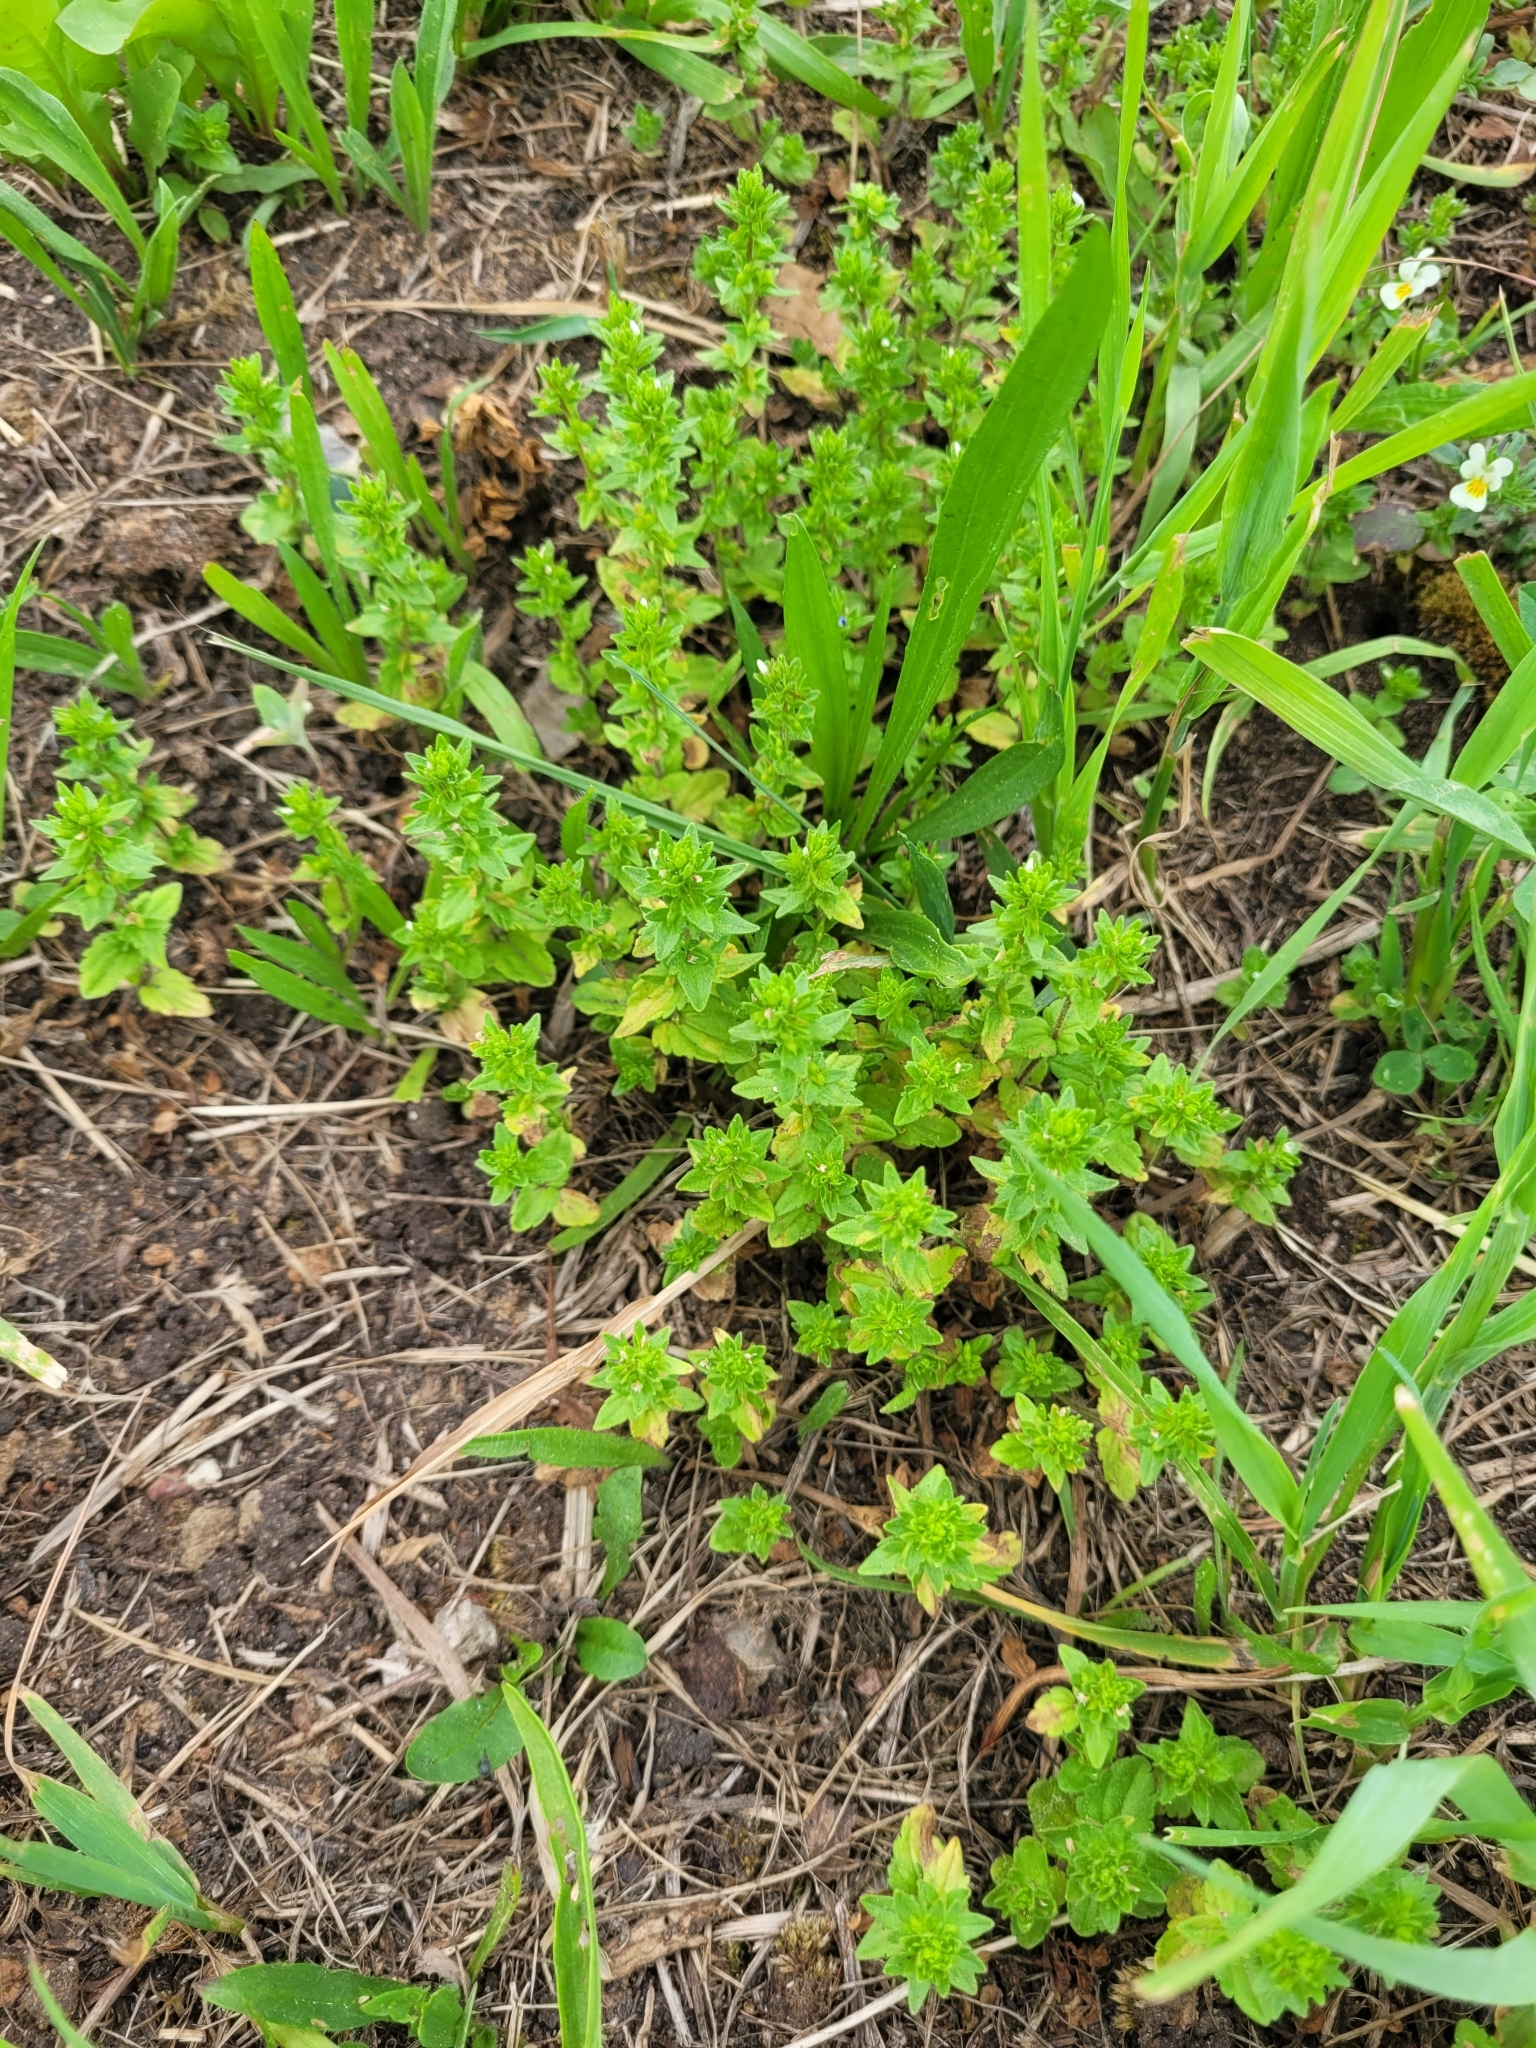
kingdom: Plantae
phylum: Tracheophyta
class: Magnoliopsida
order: Lamiales
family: Plantaginaceae
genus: Veronica
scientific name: Veronica arvensis
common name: Corn speedwell
